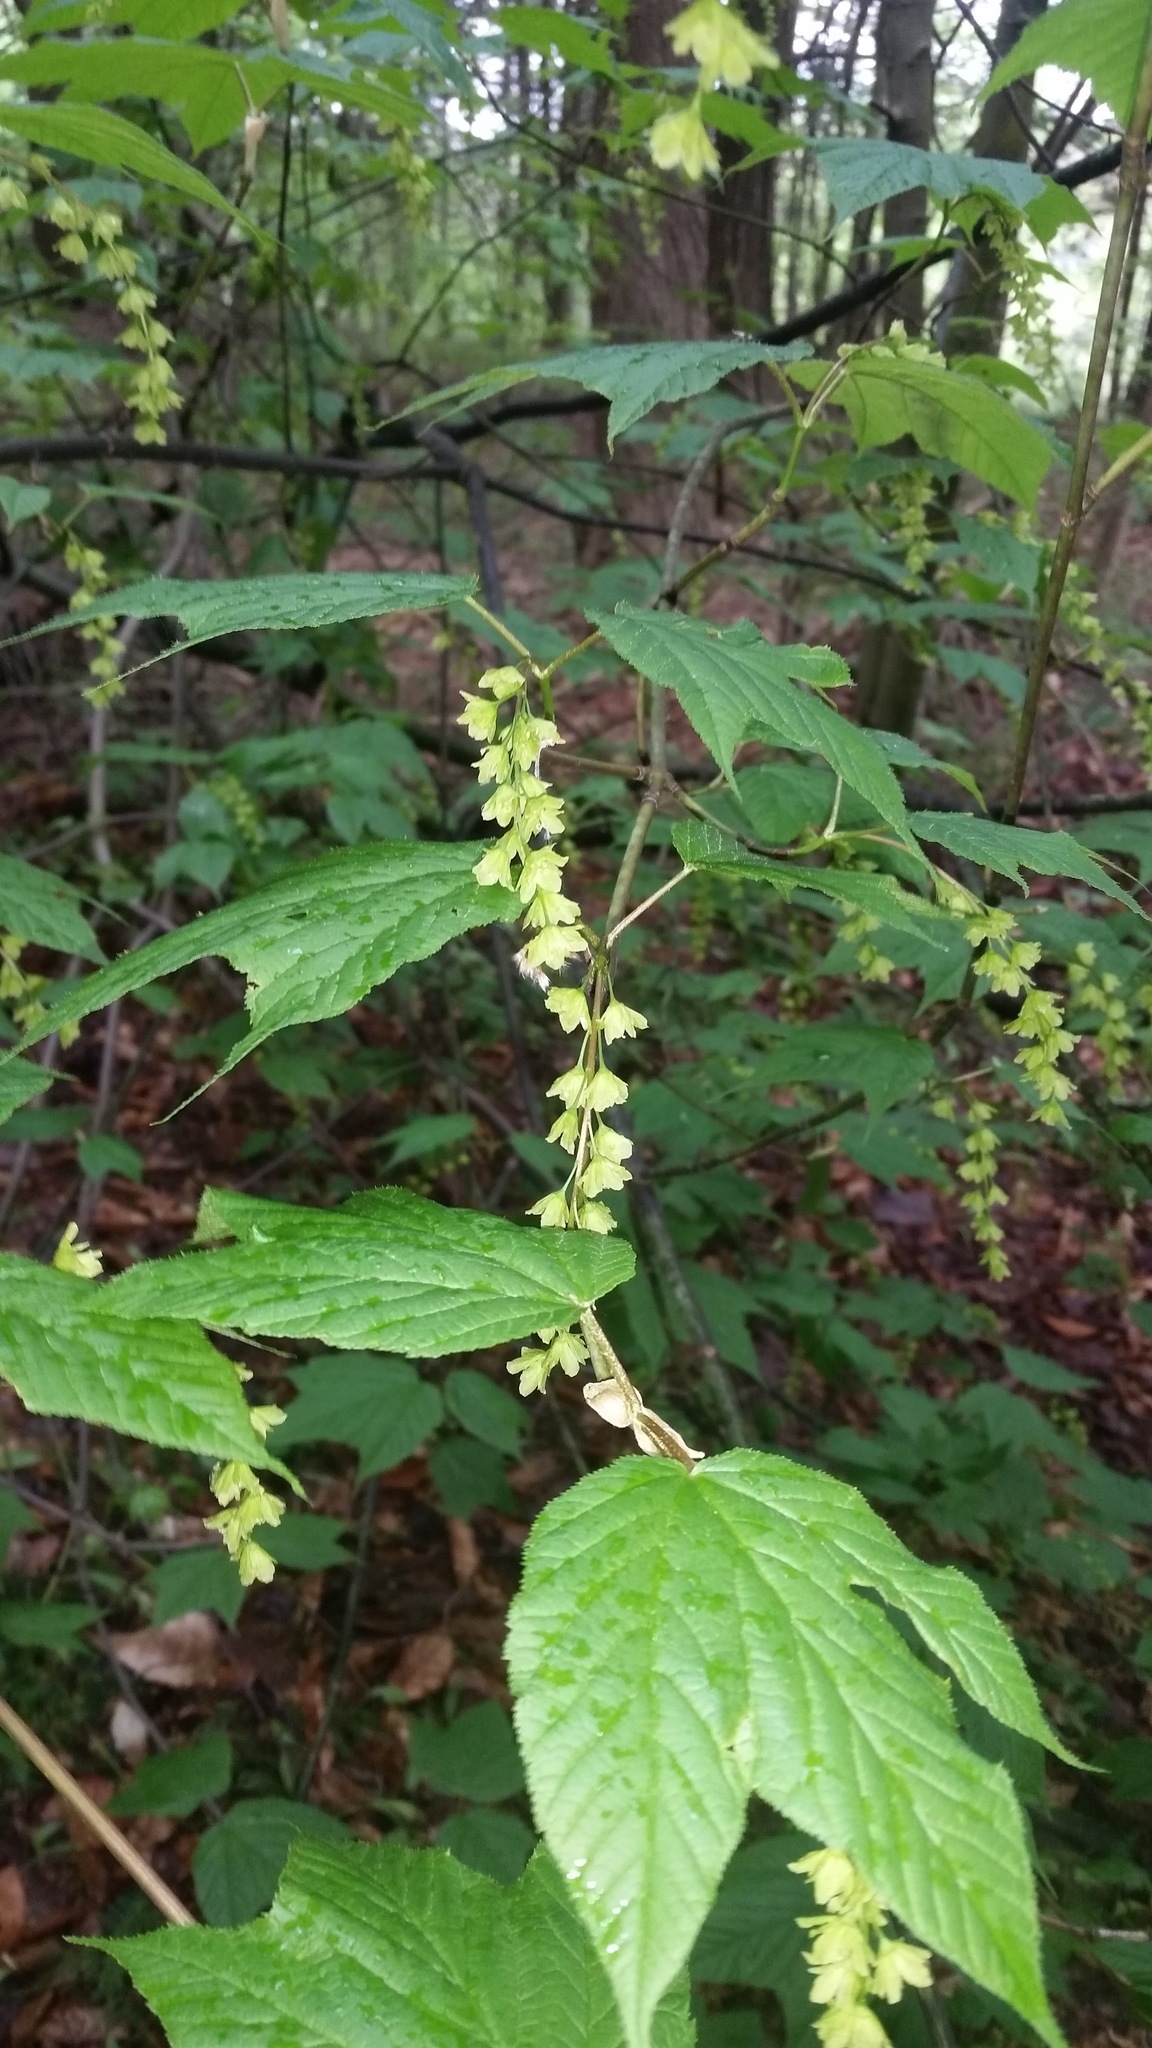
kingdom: Plantae
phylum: Tracheophyta
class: Magnoliopsida
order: Sapindales
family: Sapindaceae
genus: Acer
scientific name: Acer pensylvanicum
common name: Moosewood
